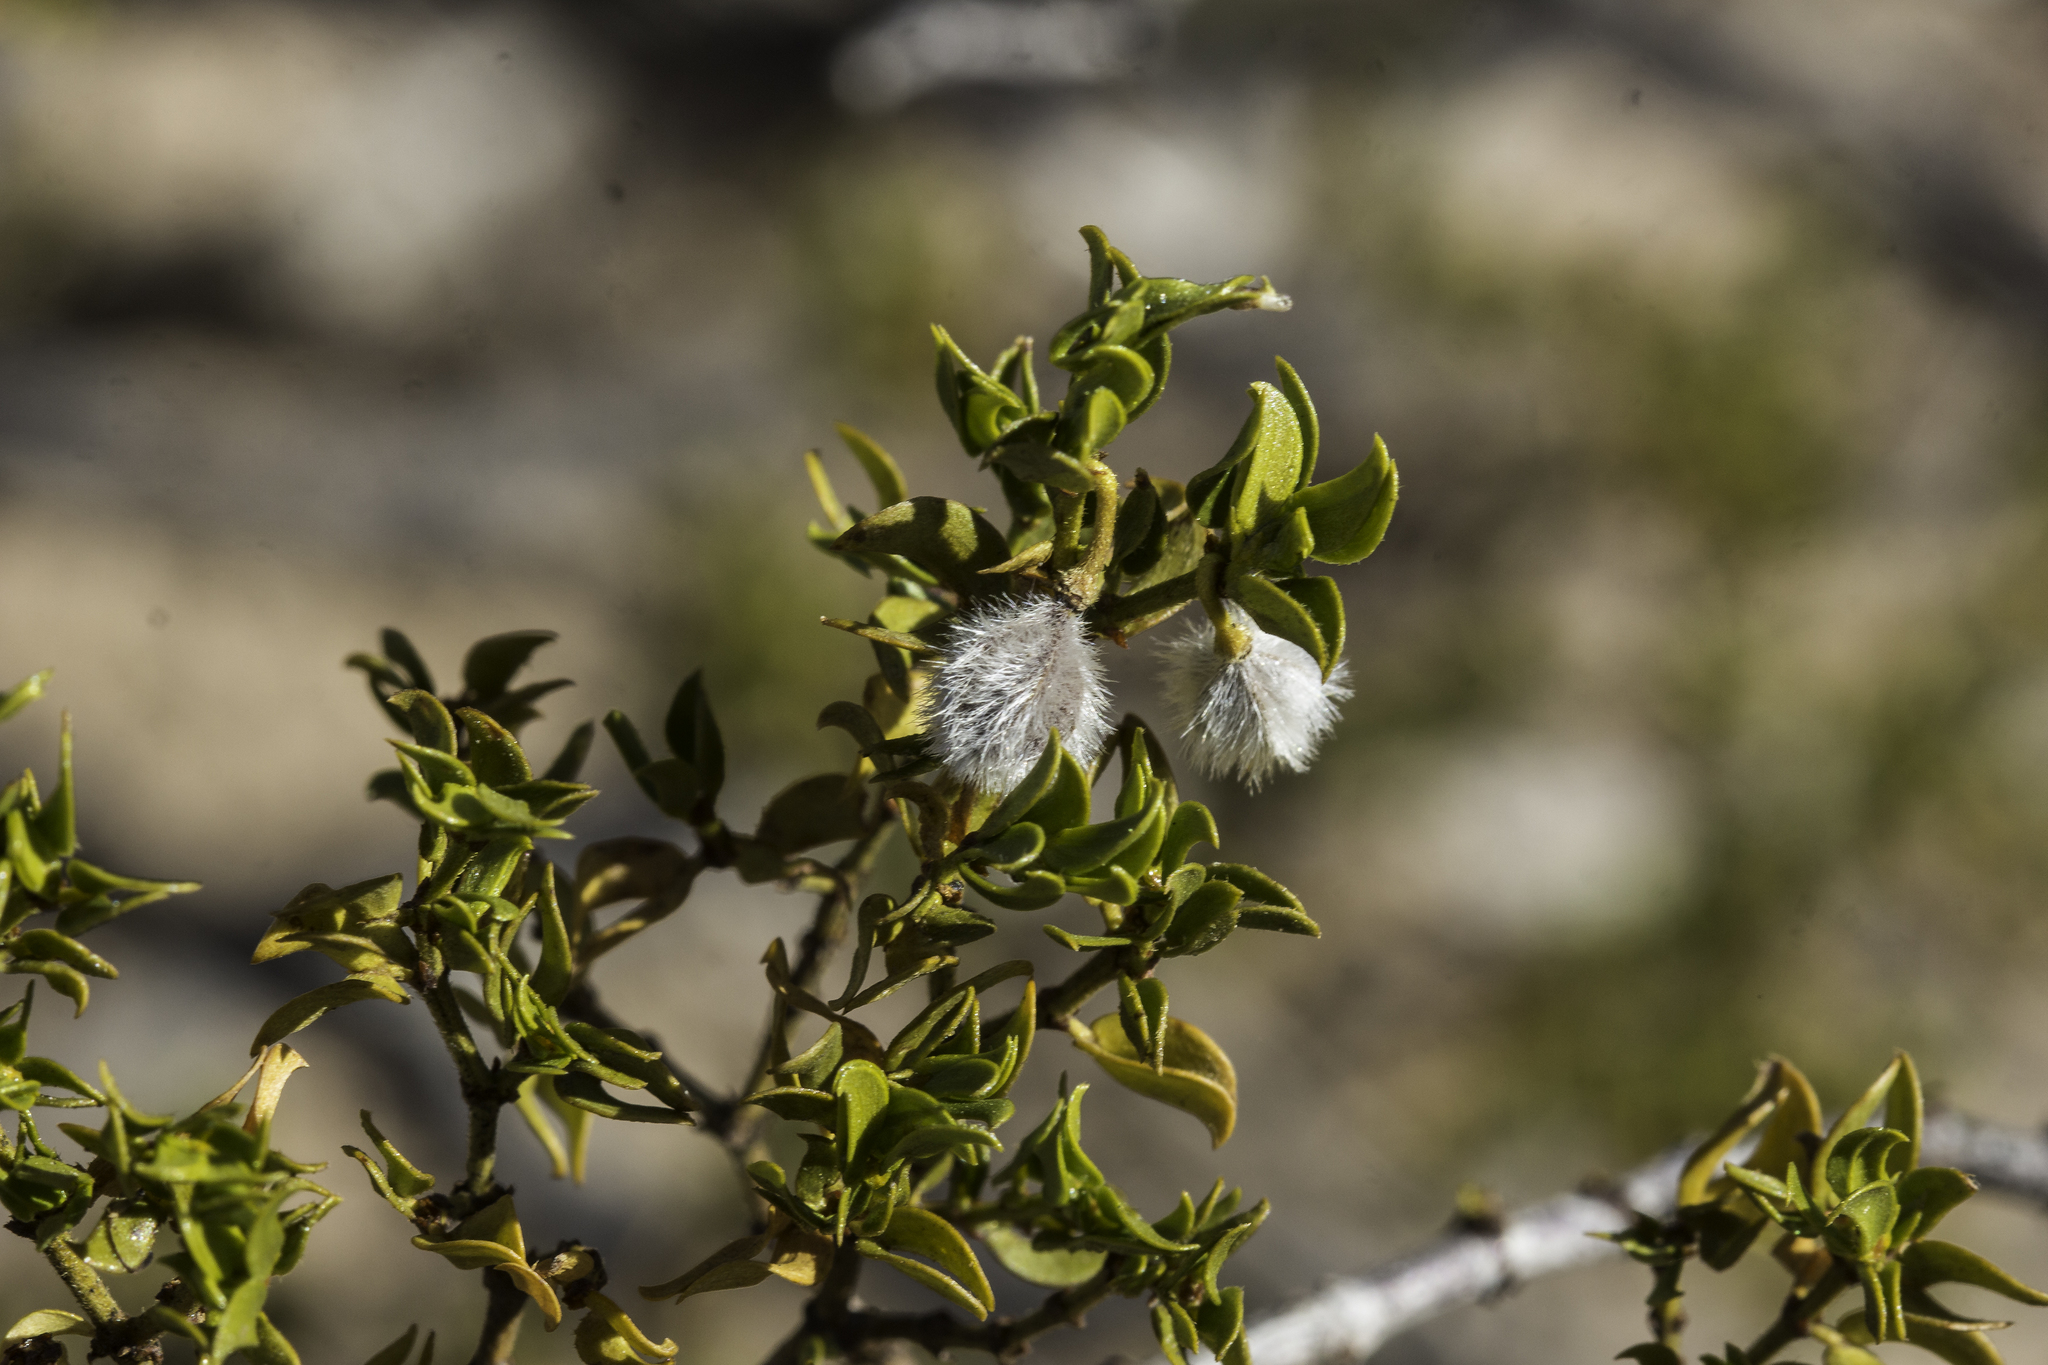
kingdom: Plantae
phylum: Tracheophyta
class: Magnoliopsida
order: Zygophyllales
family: Zygophyllaceae
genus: Larrea
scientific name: Larrea tridentata
